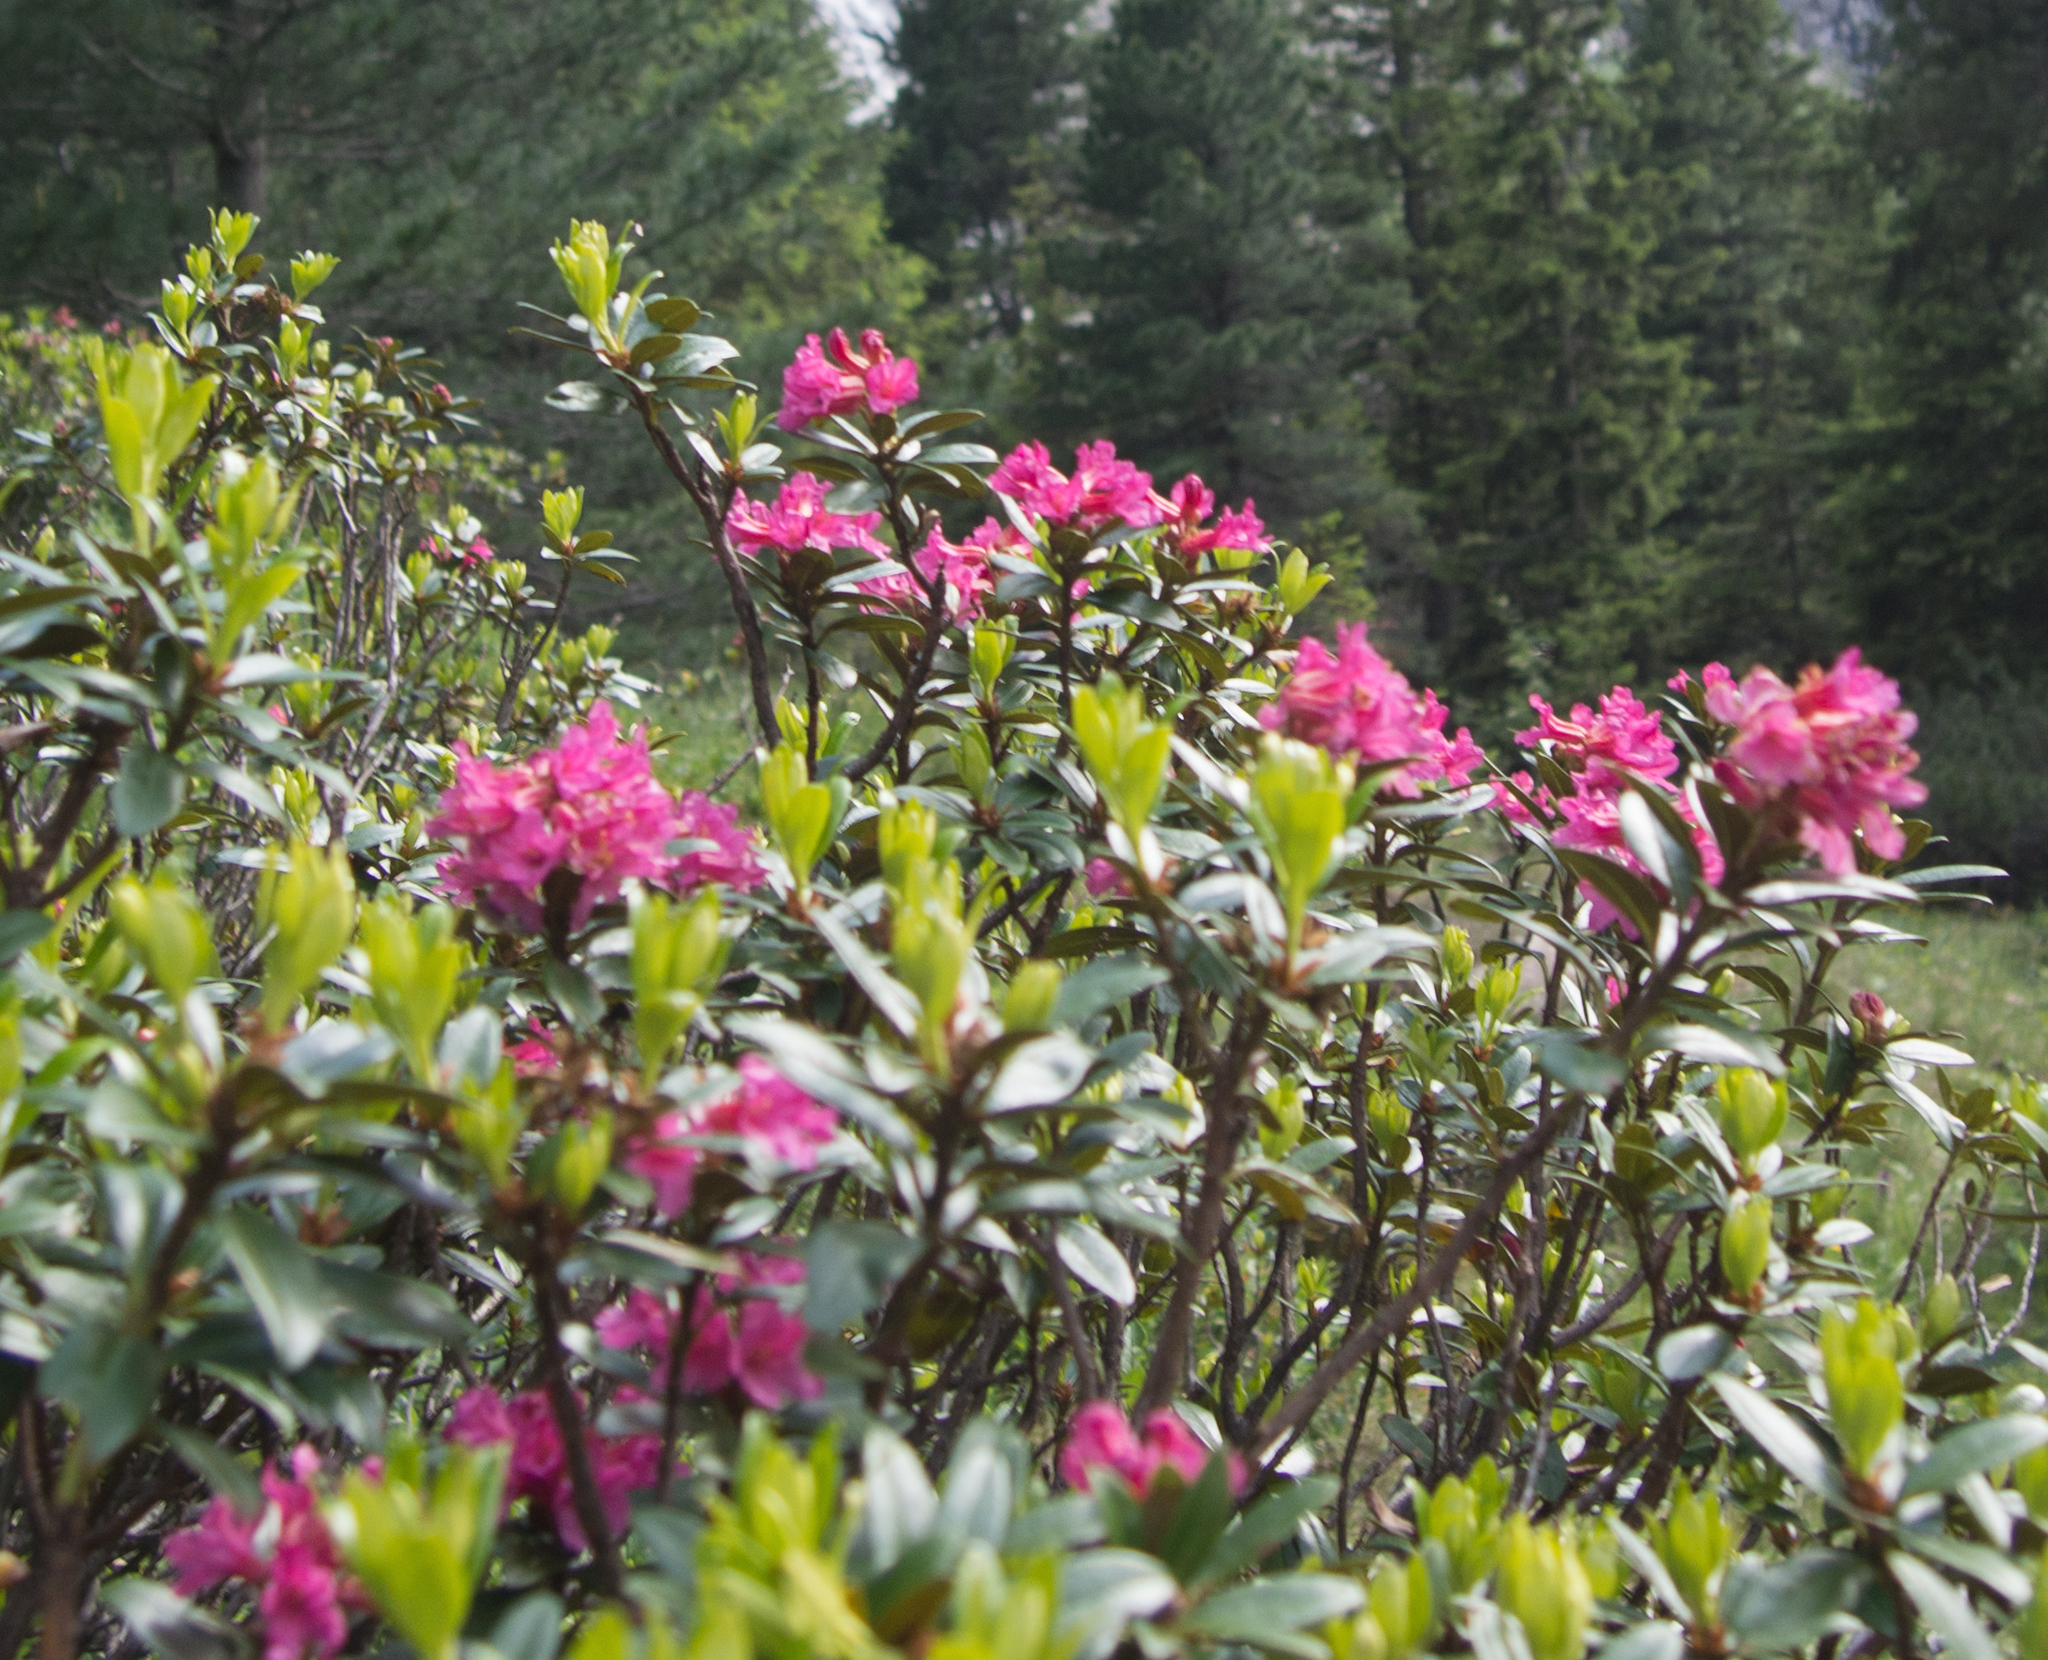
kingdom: Plantae
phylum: Tracheophyta
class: Magnoliopsida
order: Ericales
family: Ericaceae
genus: Rhododendron
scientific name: Rhododendron ferrugineum
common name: Alpenrose
